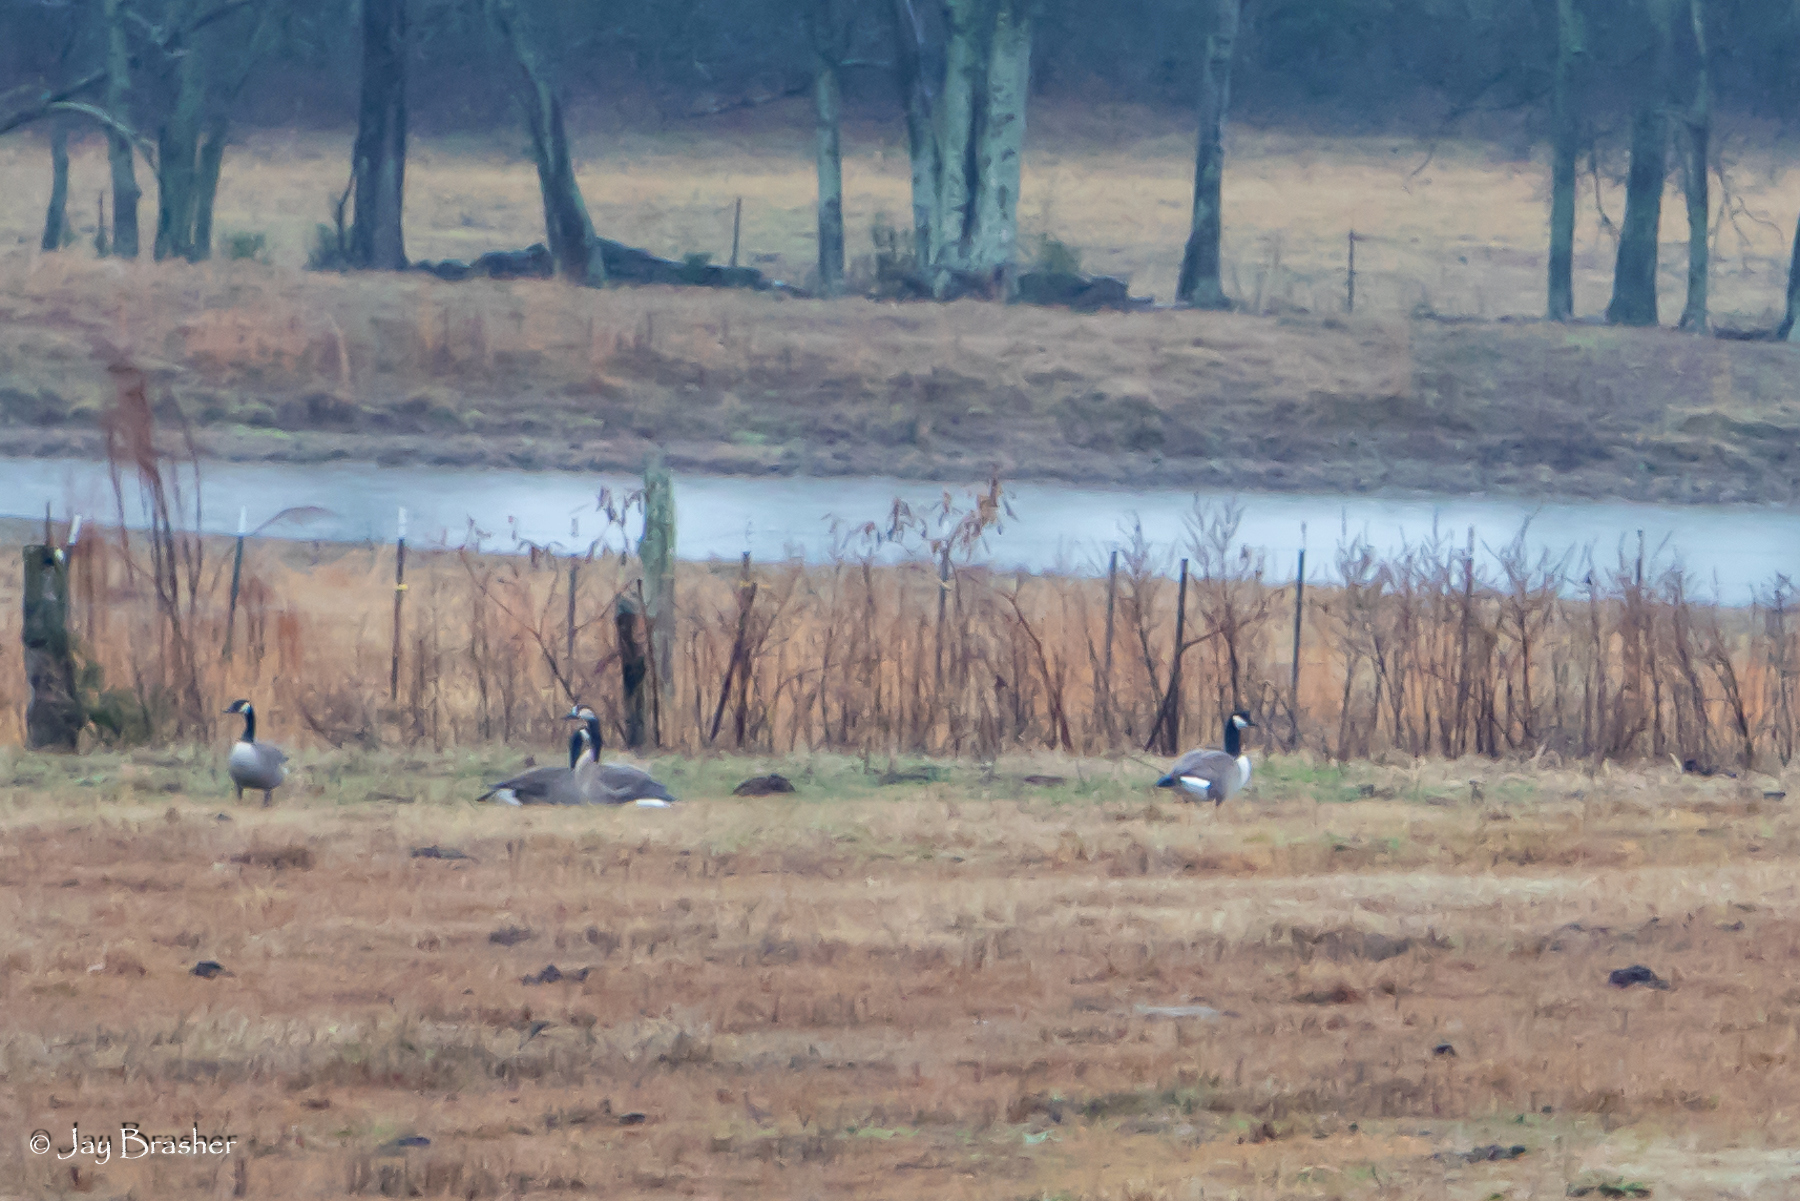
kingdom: Animalia
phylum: Chordata
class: Aves
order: Anseriformes
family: Anatidae
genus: Branta
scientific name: Branta canadensis
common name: Canada goose
